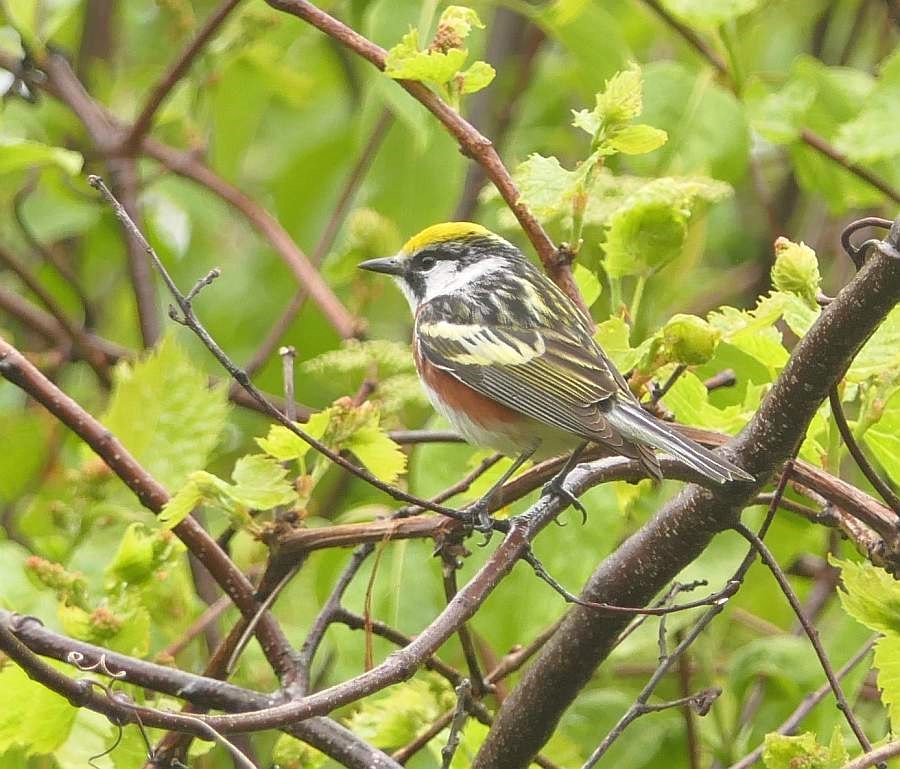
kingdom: Animalia
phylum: Chordata
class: Aves
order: Passeriformes
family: Parulidae
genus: Setophaga
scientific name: Setophaga pensylvanica
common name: Chestnut-sided warbler
